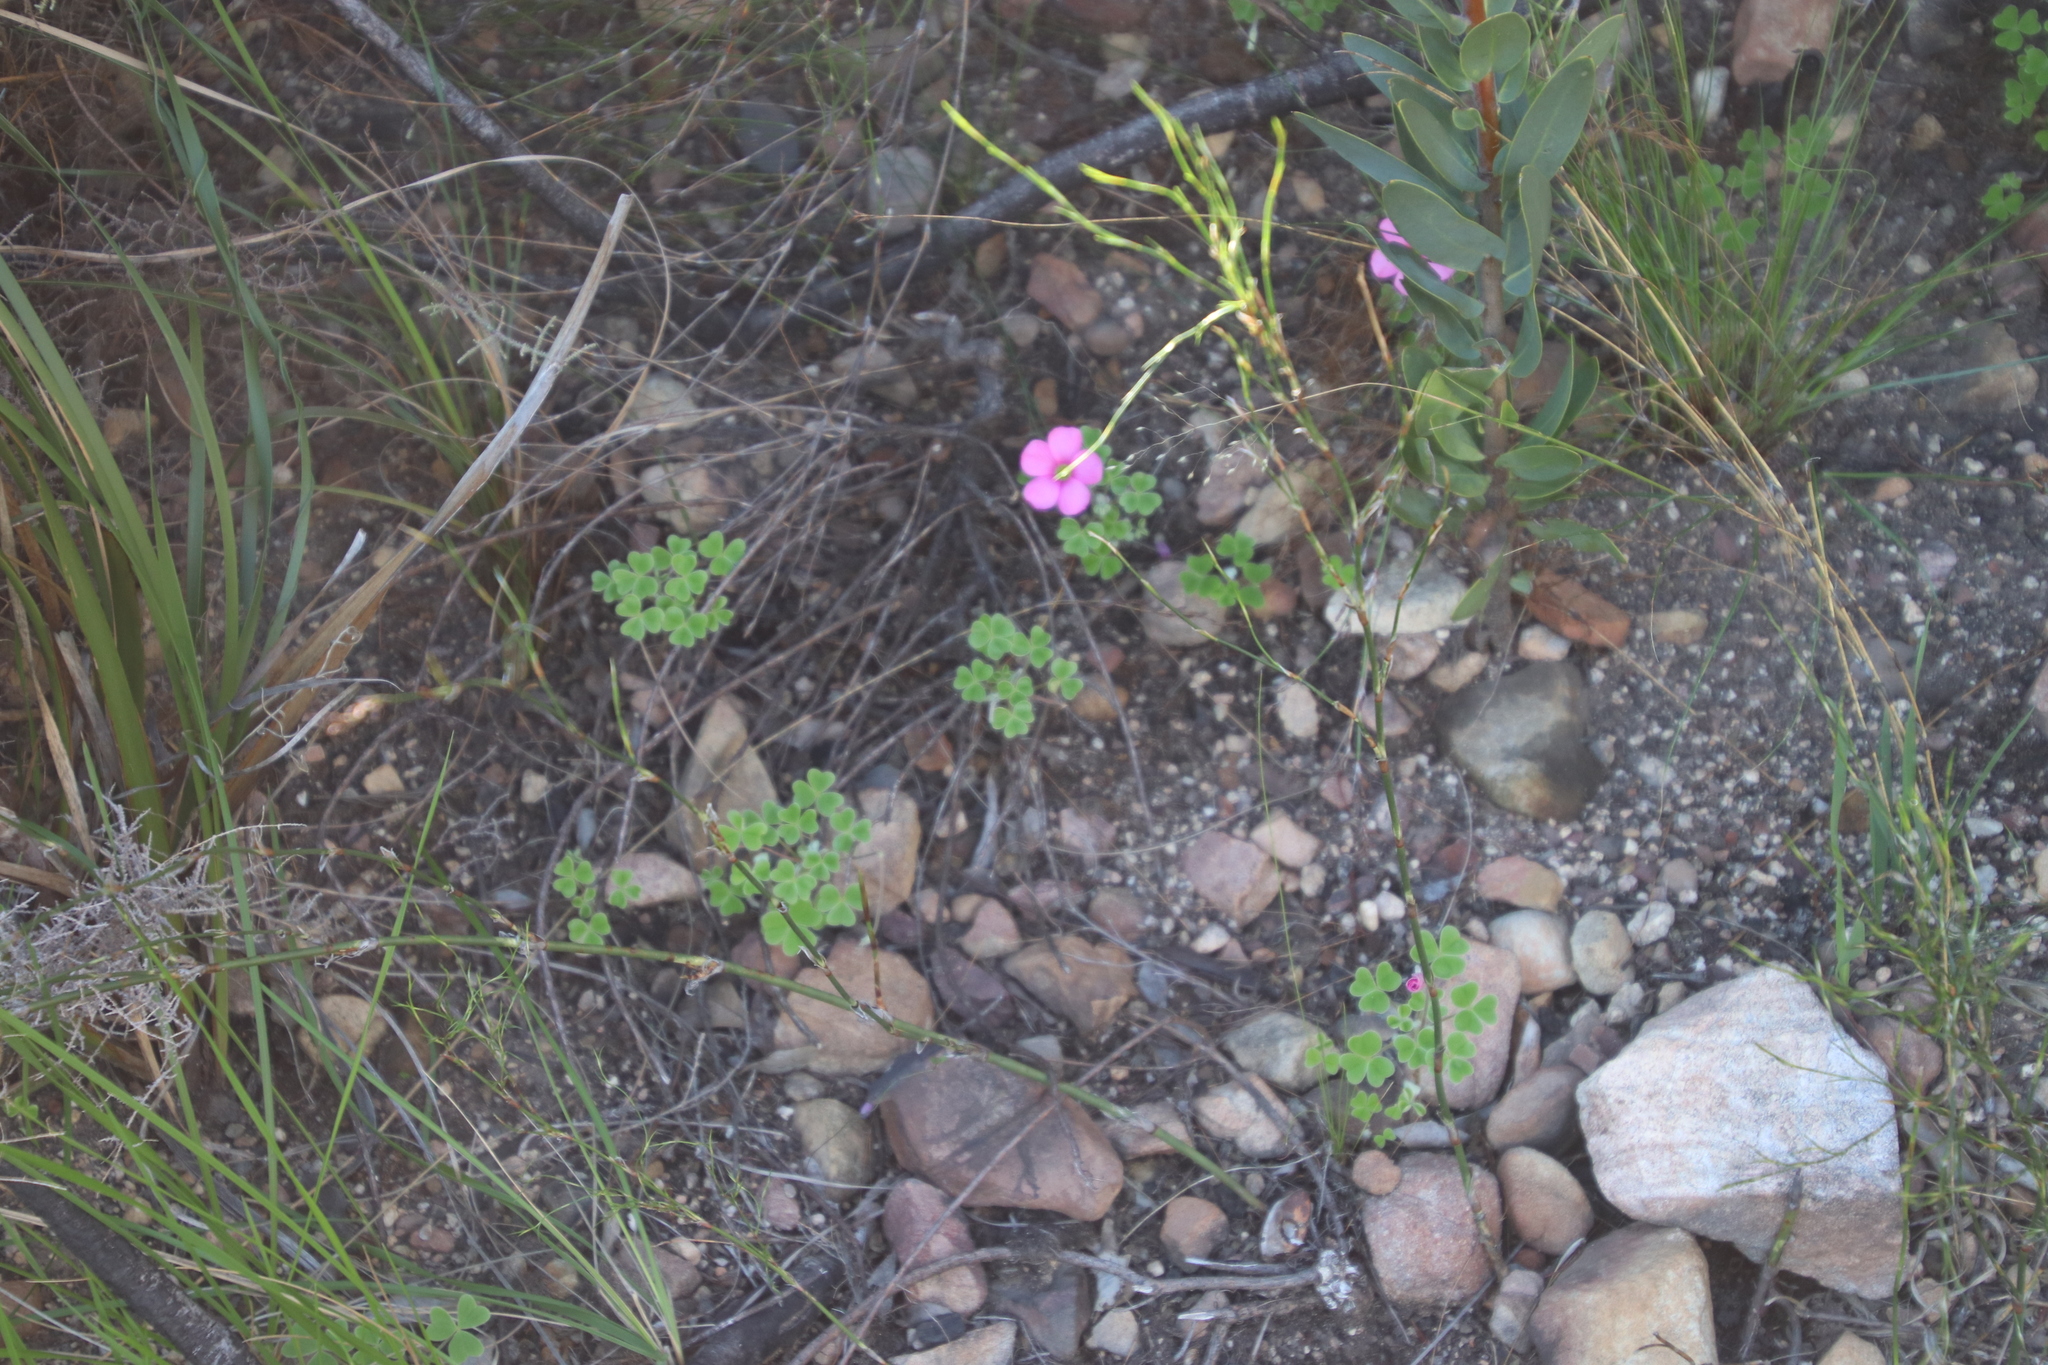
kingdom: Plantae
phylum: Tracheophyta
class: Magnoliopsida
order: Oxalidales
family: Oxalidaceae
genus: Oxalis
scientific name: Oxalis lanata
